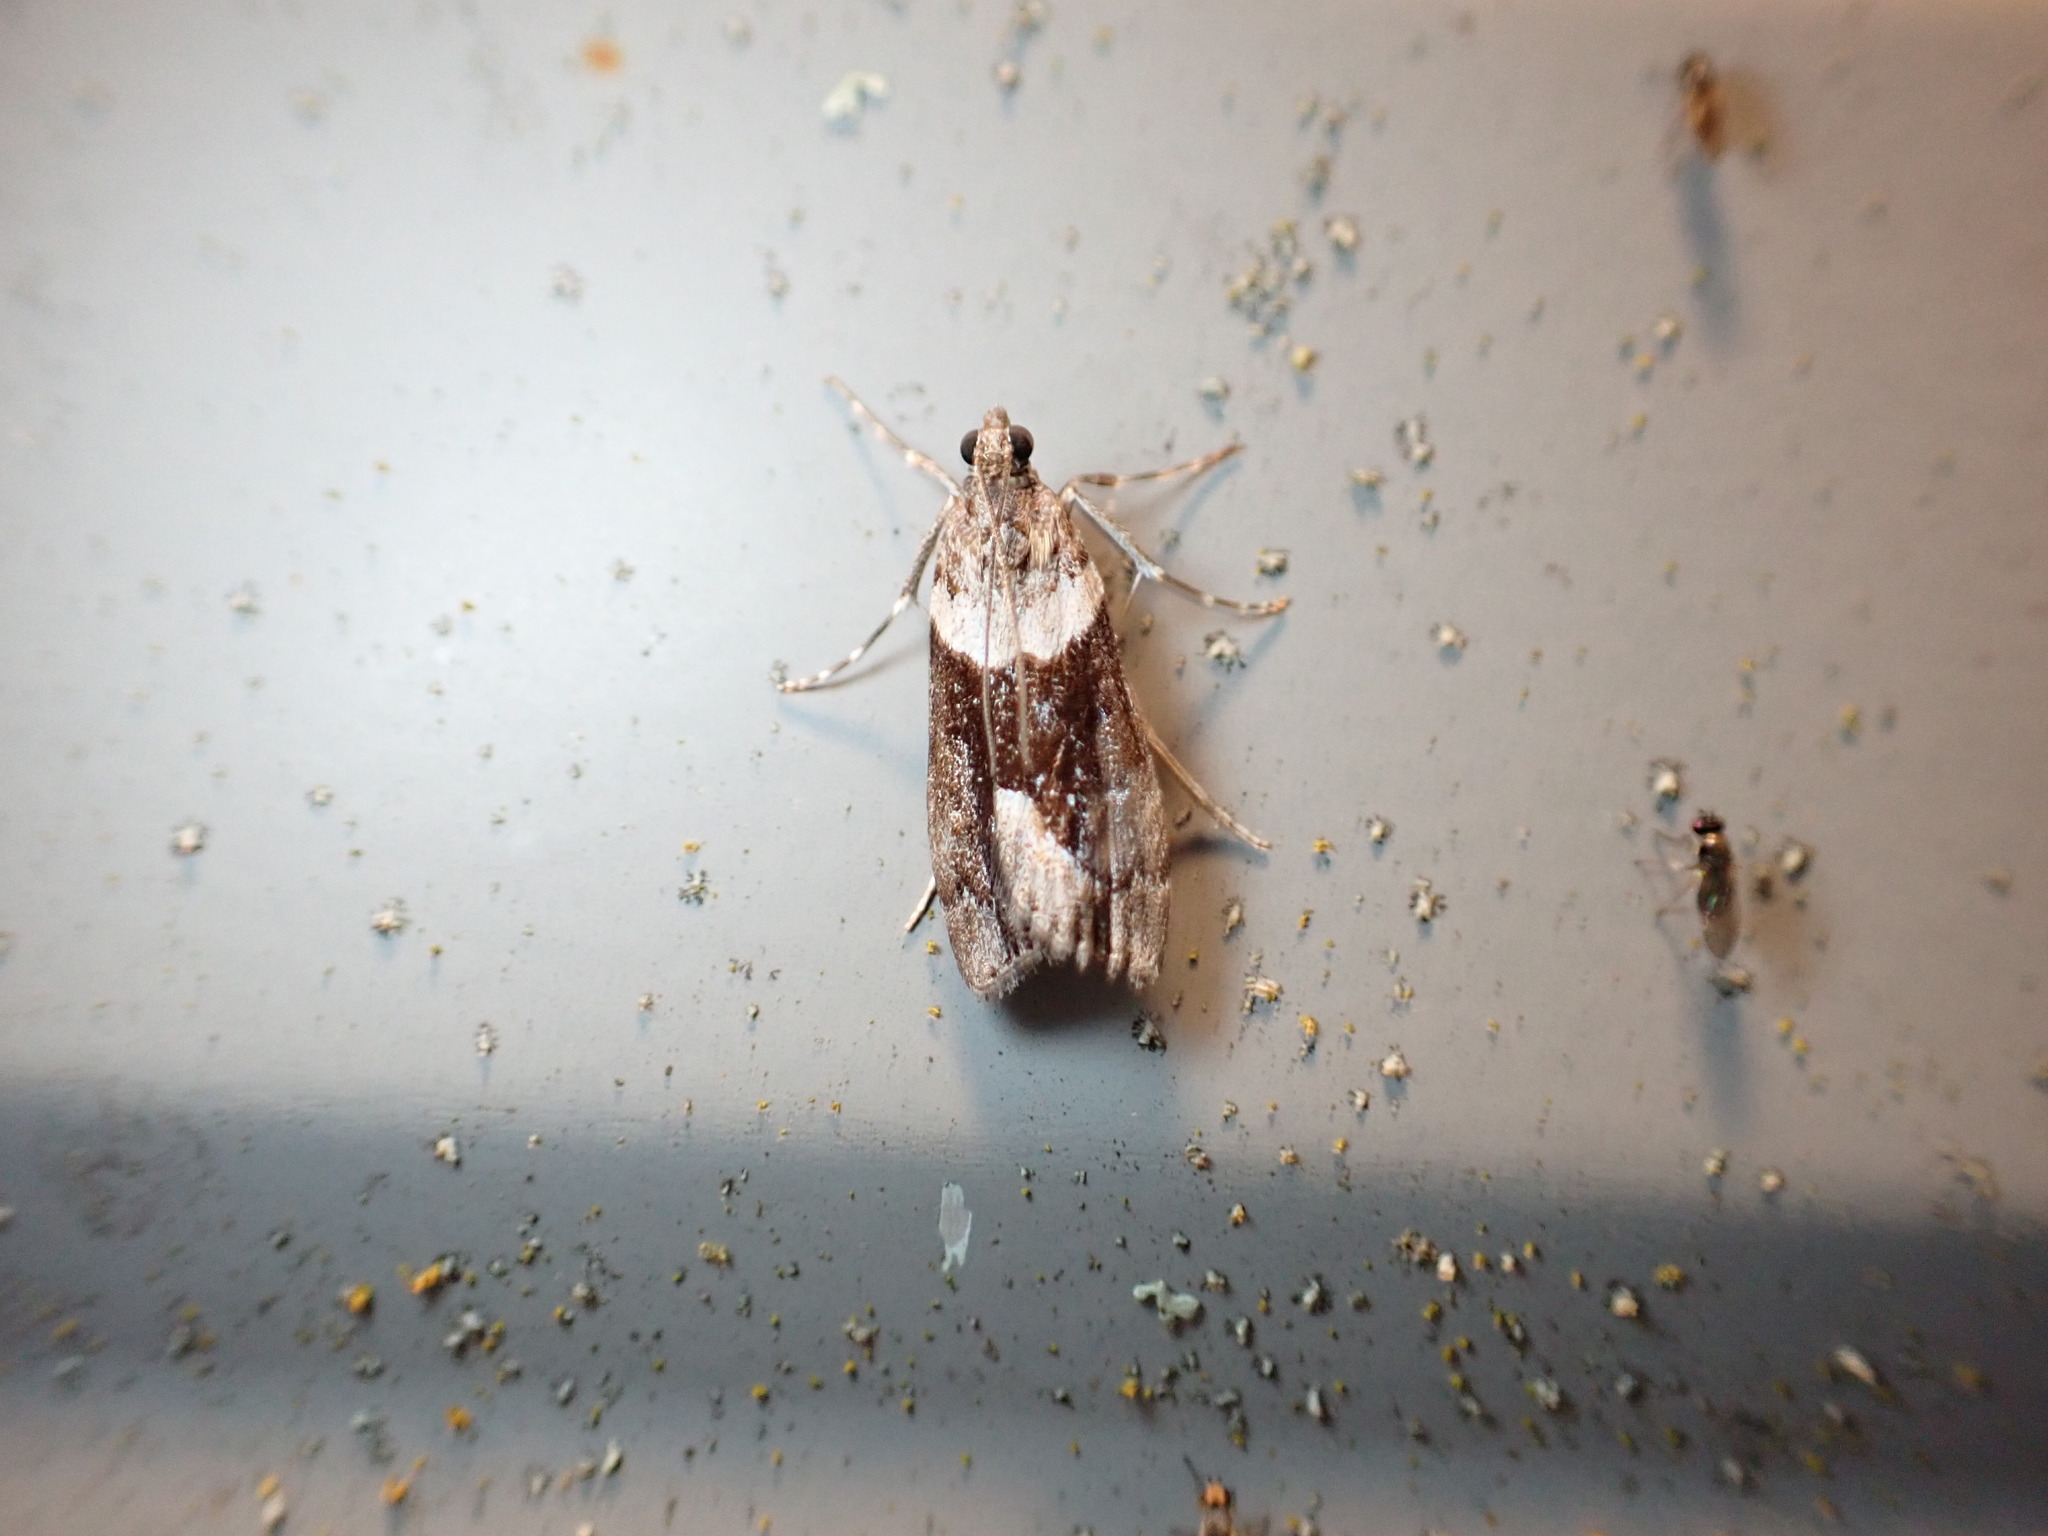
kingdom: Animalia
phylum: Arthropoda
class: Insecta
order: Lepidoptera
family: Crambidae
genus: Eudonia
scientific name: Eudonia submarginalis
